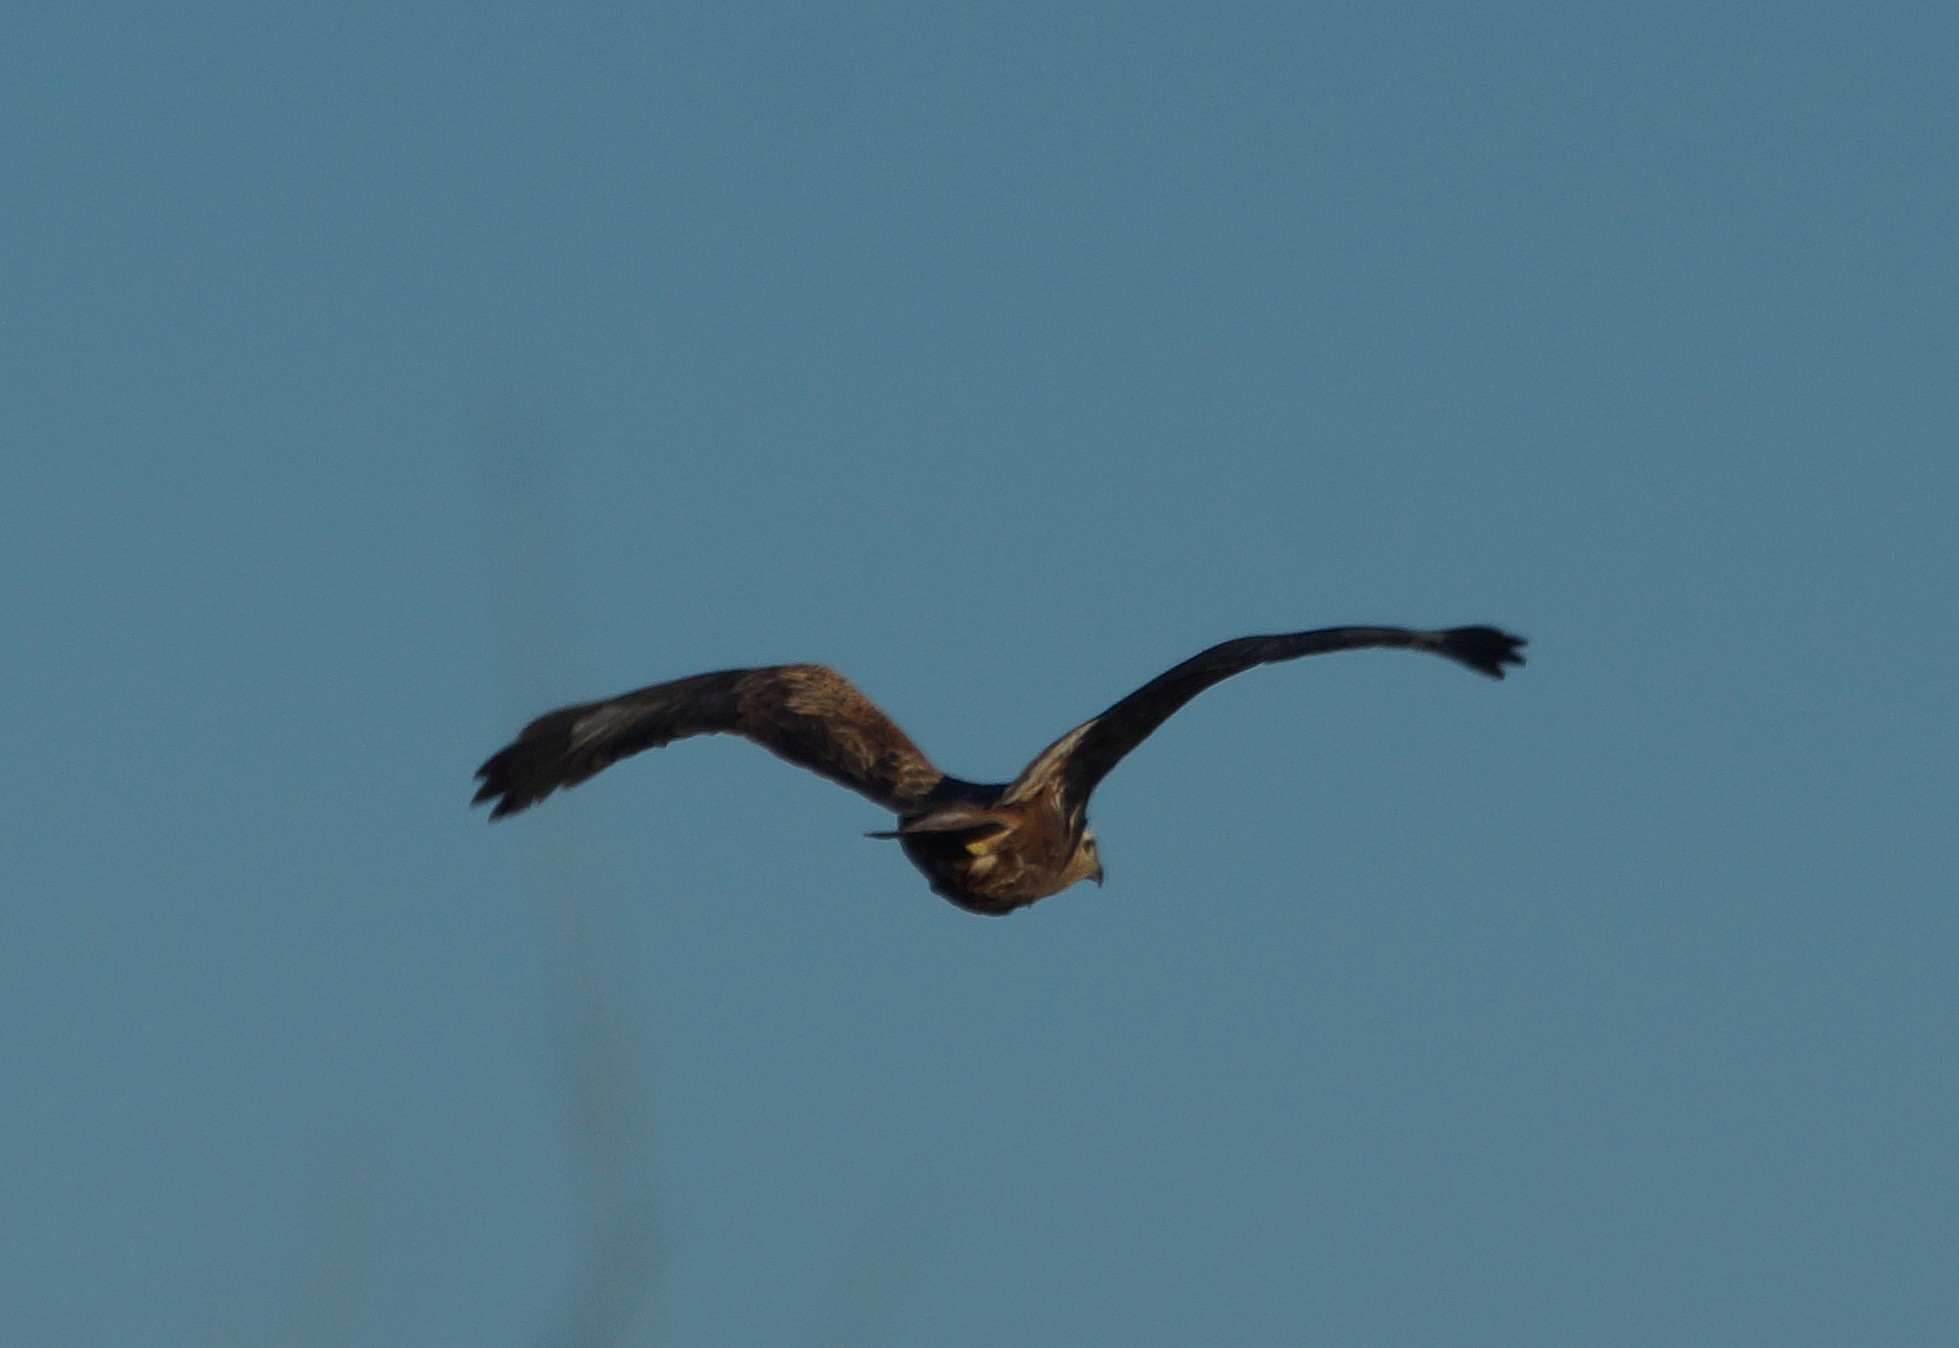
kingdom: Animalia
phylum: Chordata
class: Aves
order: Accipitriformes
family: Accipitridae
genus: Buteo
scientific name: Buteo rufinus
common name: Long-legged buzzard
